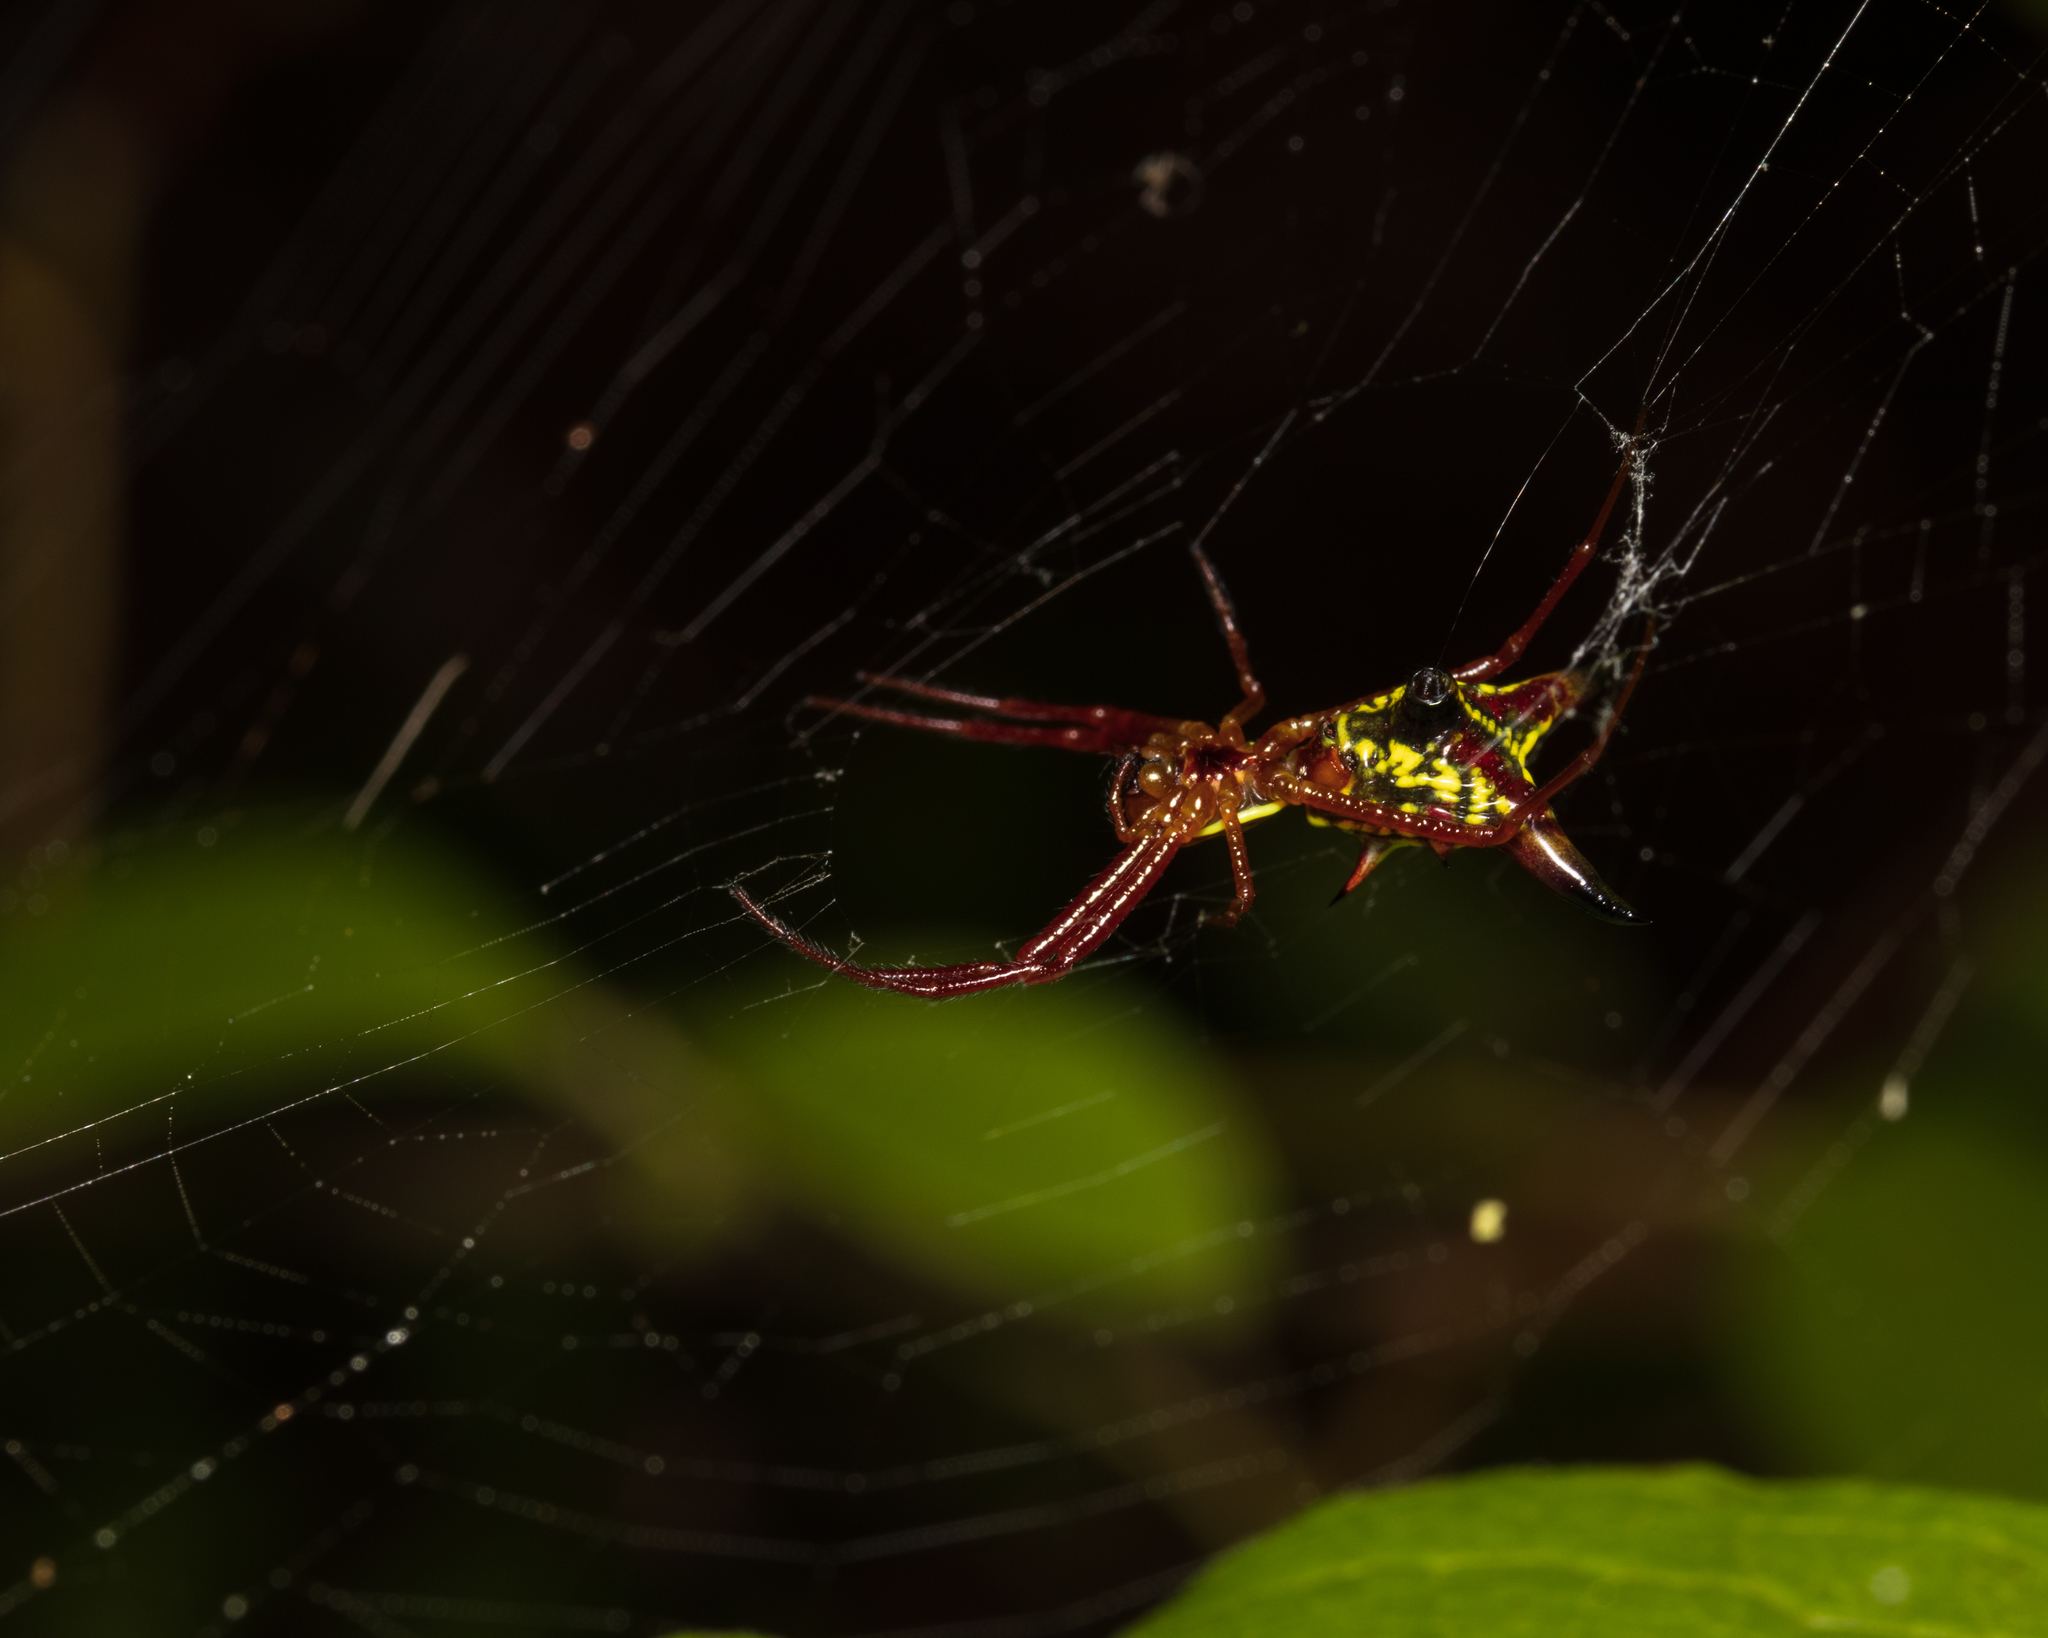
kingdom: Animalia
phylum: Arthropoda
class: Arachnida
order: Araneae
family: Araneidae
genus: Micrathena
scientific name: Micrathena sagittata
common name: Orb weavers
